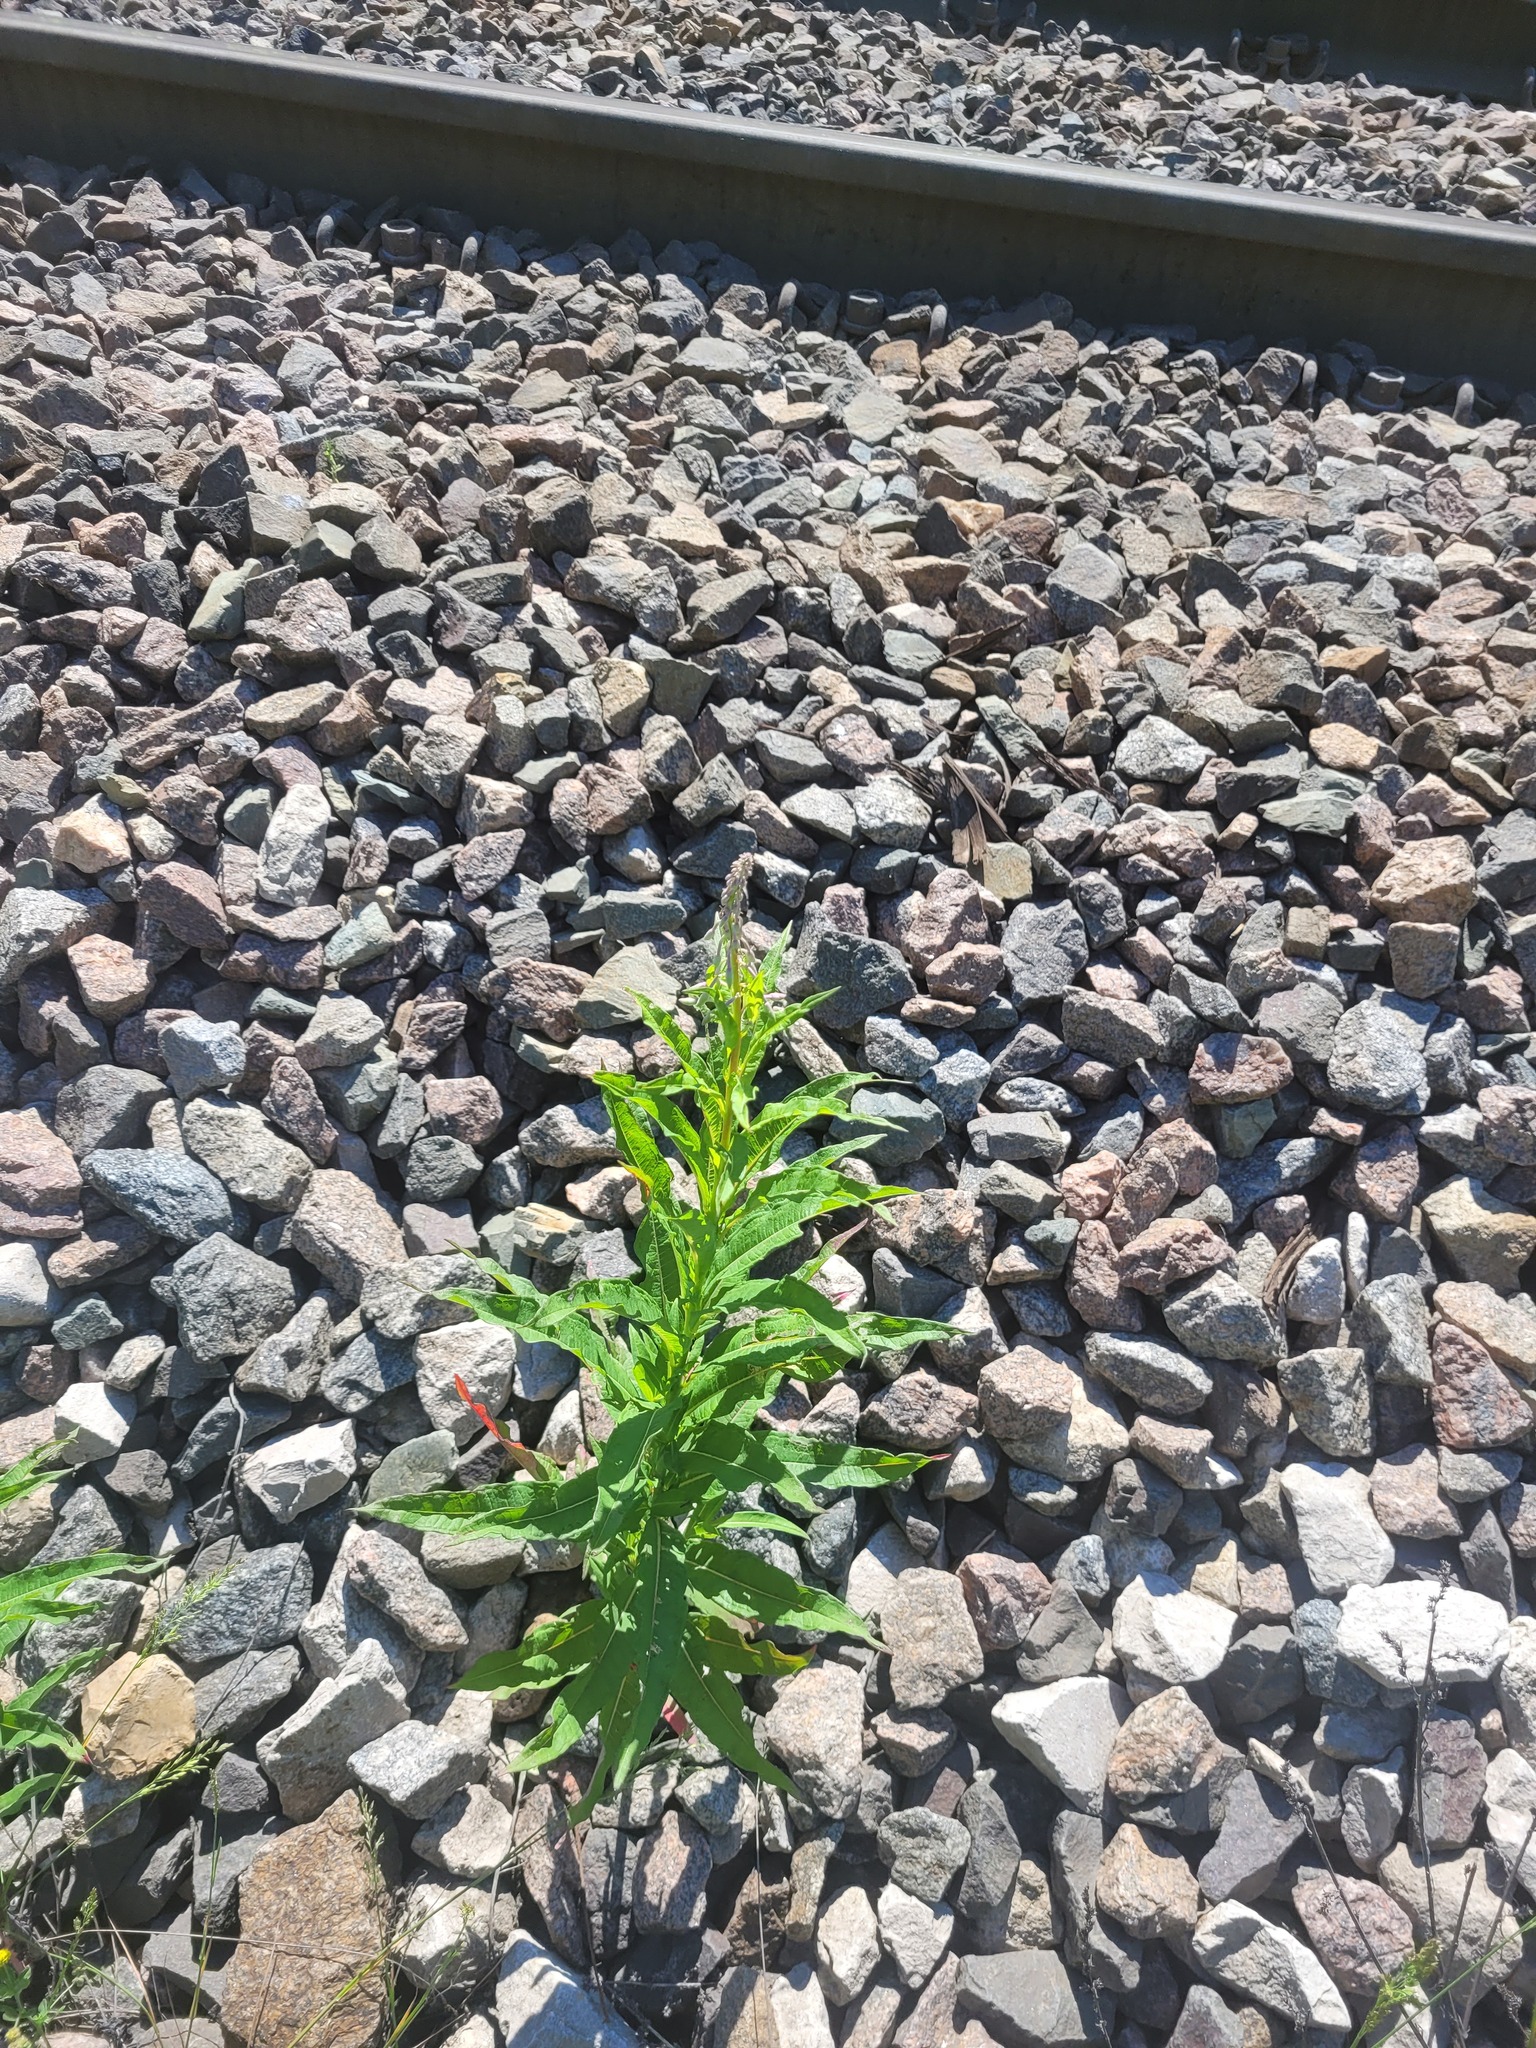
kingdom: Plantae
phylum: Tracheophyta
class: Magnoliopsida
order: Myrtales
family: Onagraceae
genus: Chamaenerion
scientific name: Chamaenerion angustifolium
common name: Fireweed
